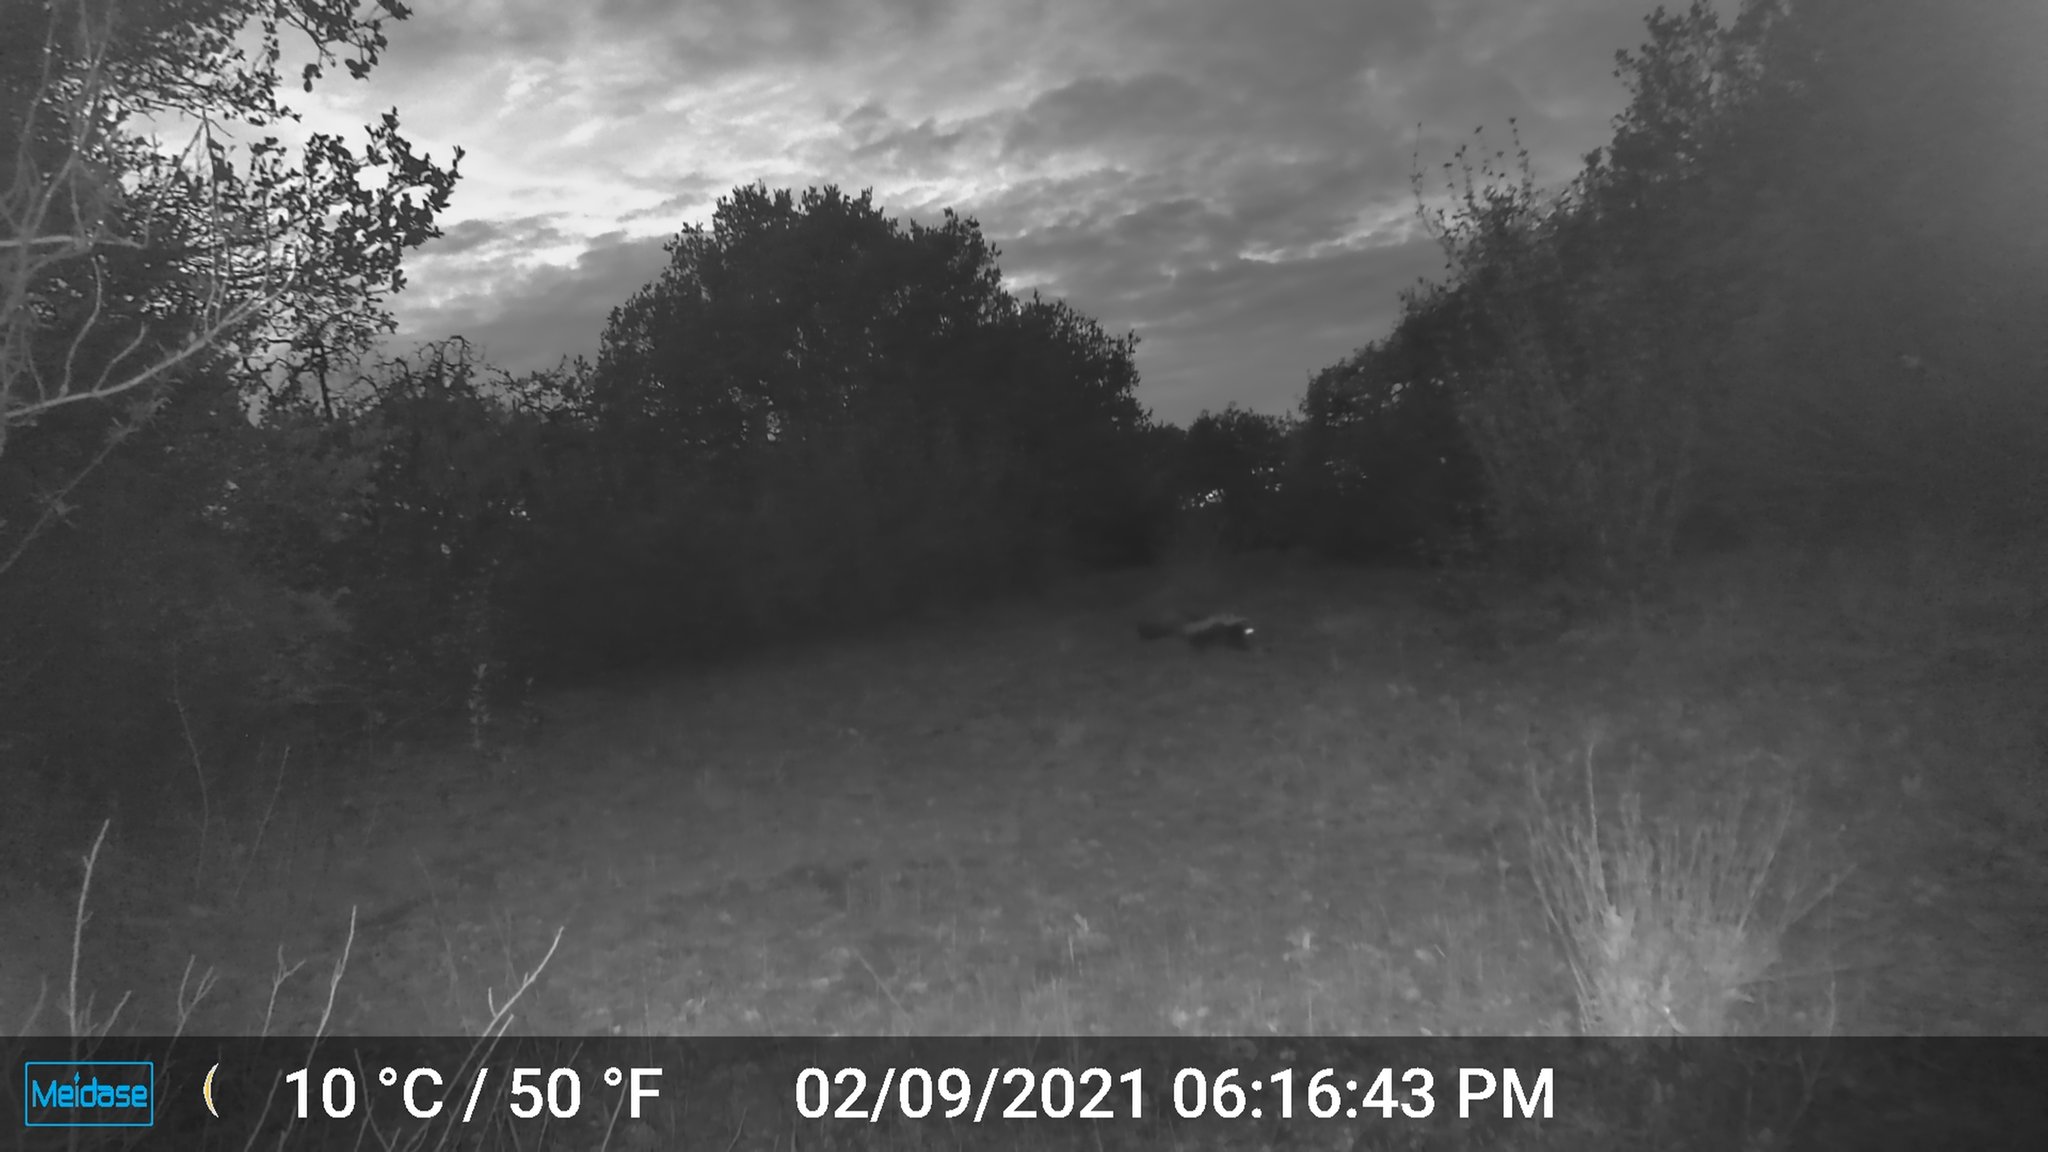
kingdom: Animalia
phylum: Chordata
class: Mammalia
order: Carnivora
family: Mephitidae
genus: Mephitis
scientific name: Mephitis mephitis
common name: Striped skunk
